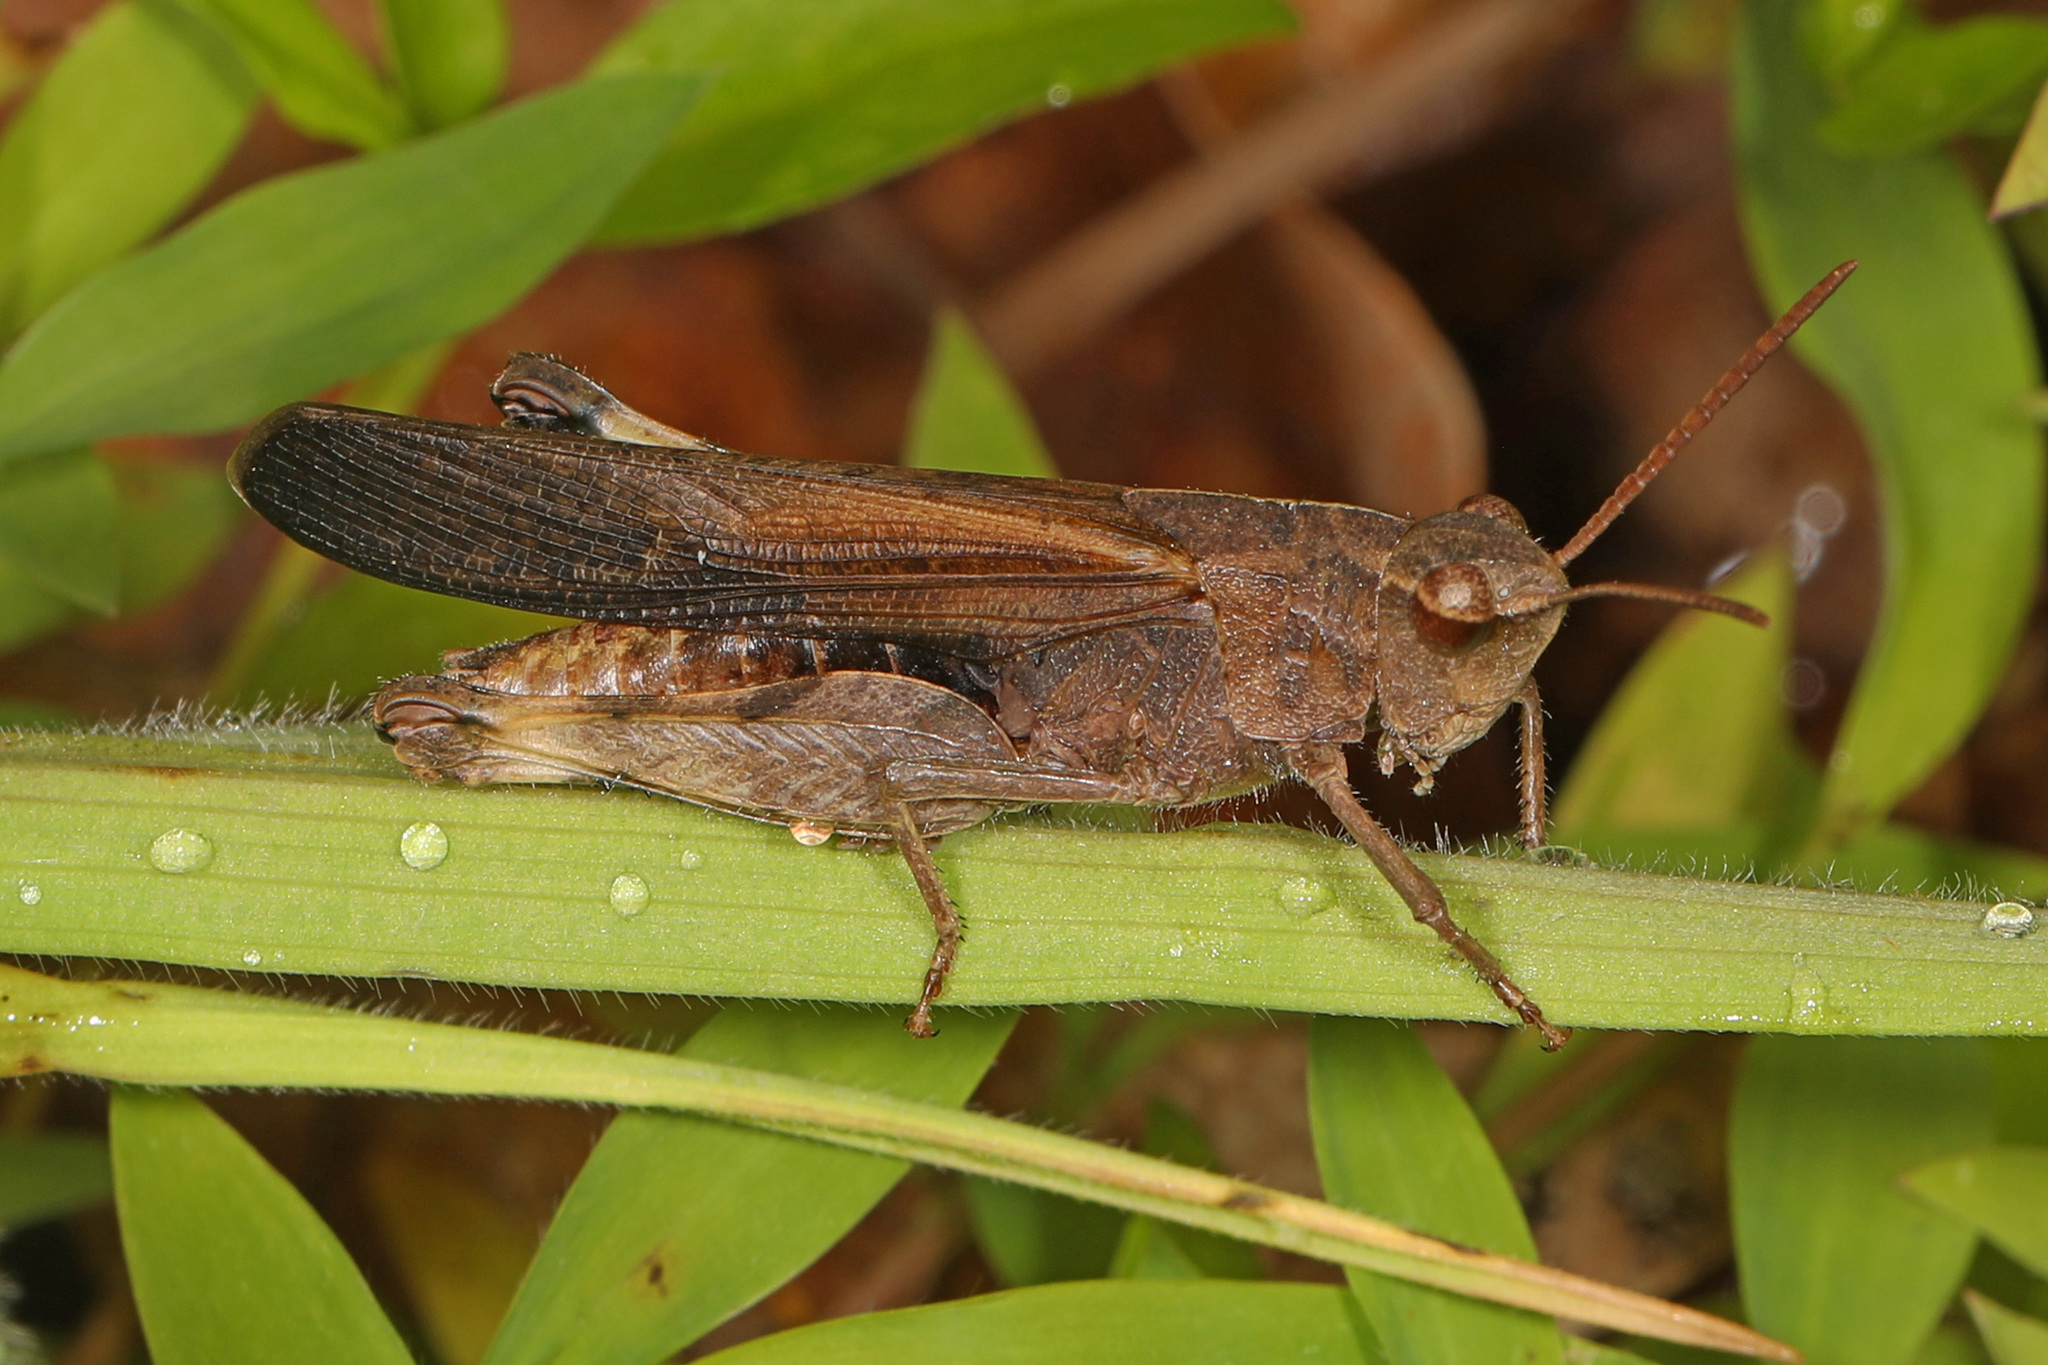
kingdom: Animalia
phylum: Arthropoda
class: Insecta
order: Orthoptera
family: Acrididae
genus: Chortophaga
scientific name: Chortophaga viridifasciata
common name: Green-striped grasshopper
